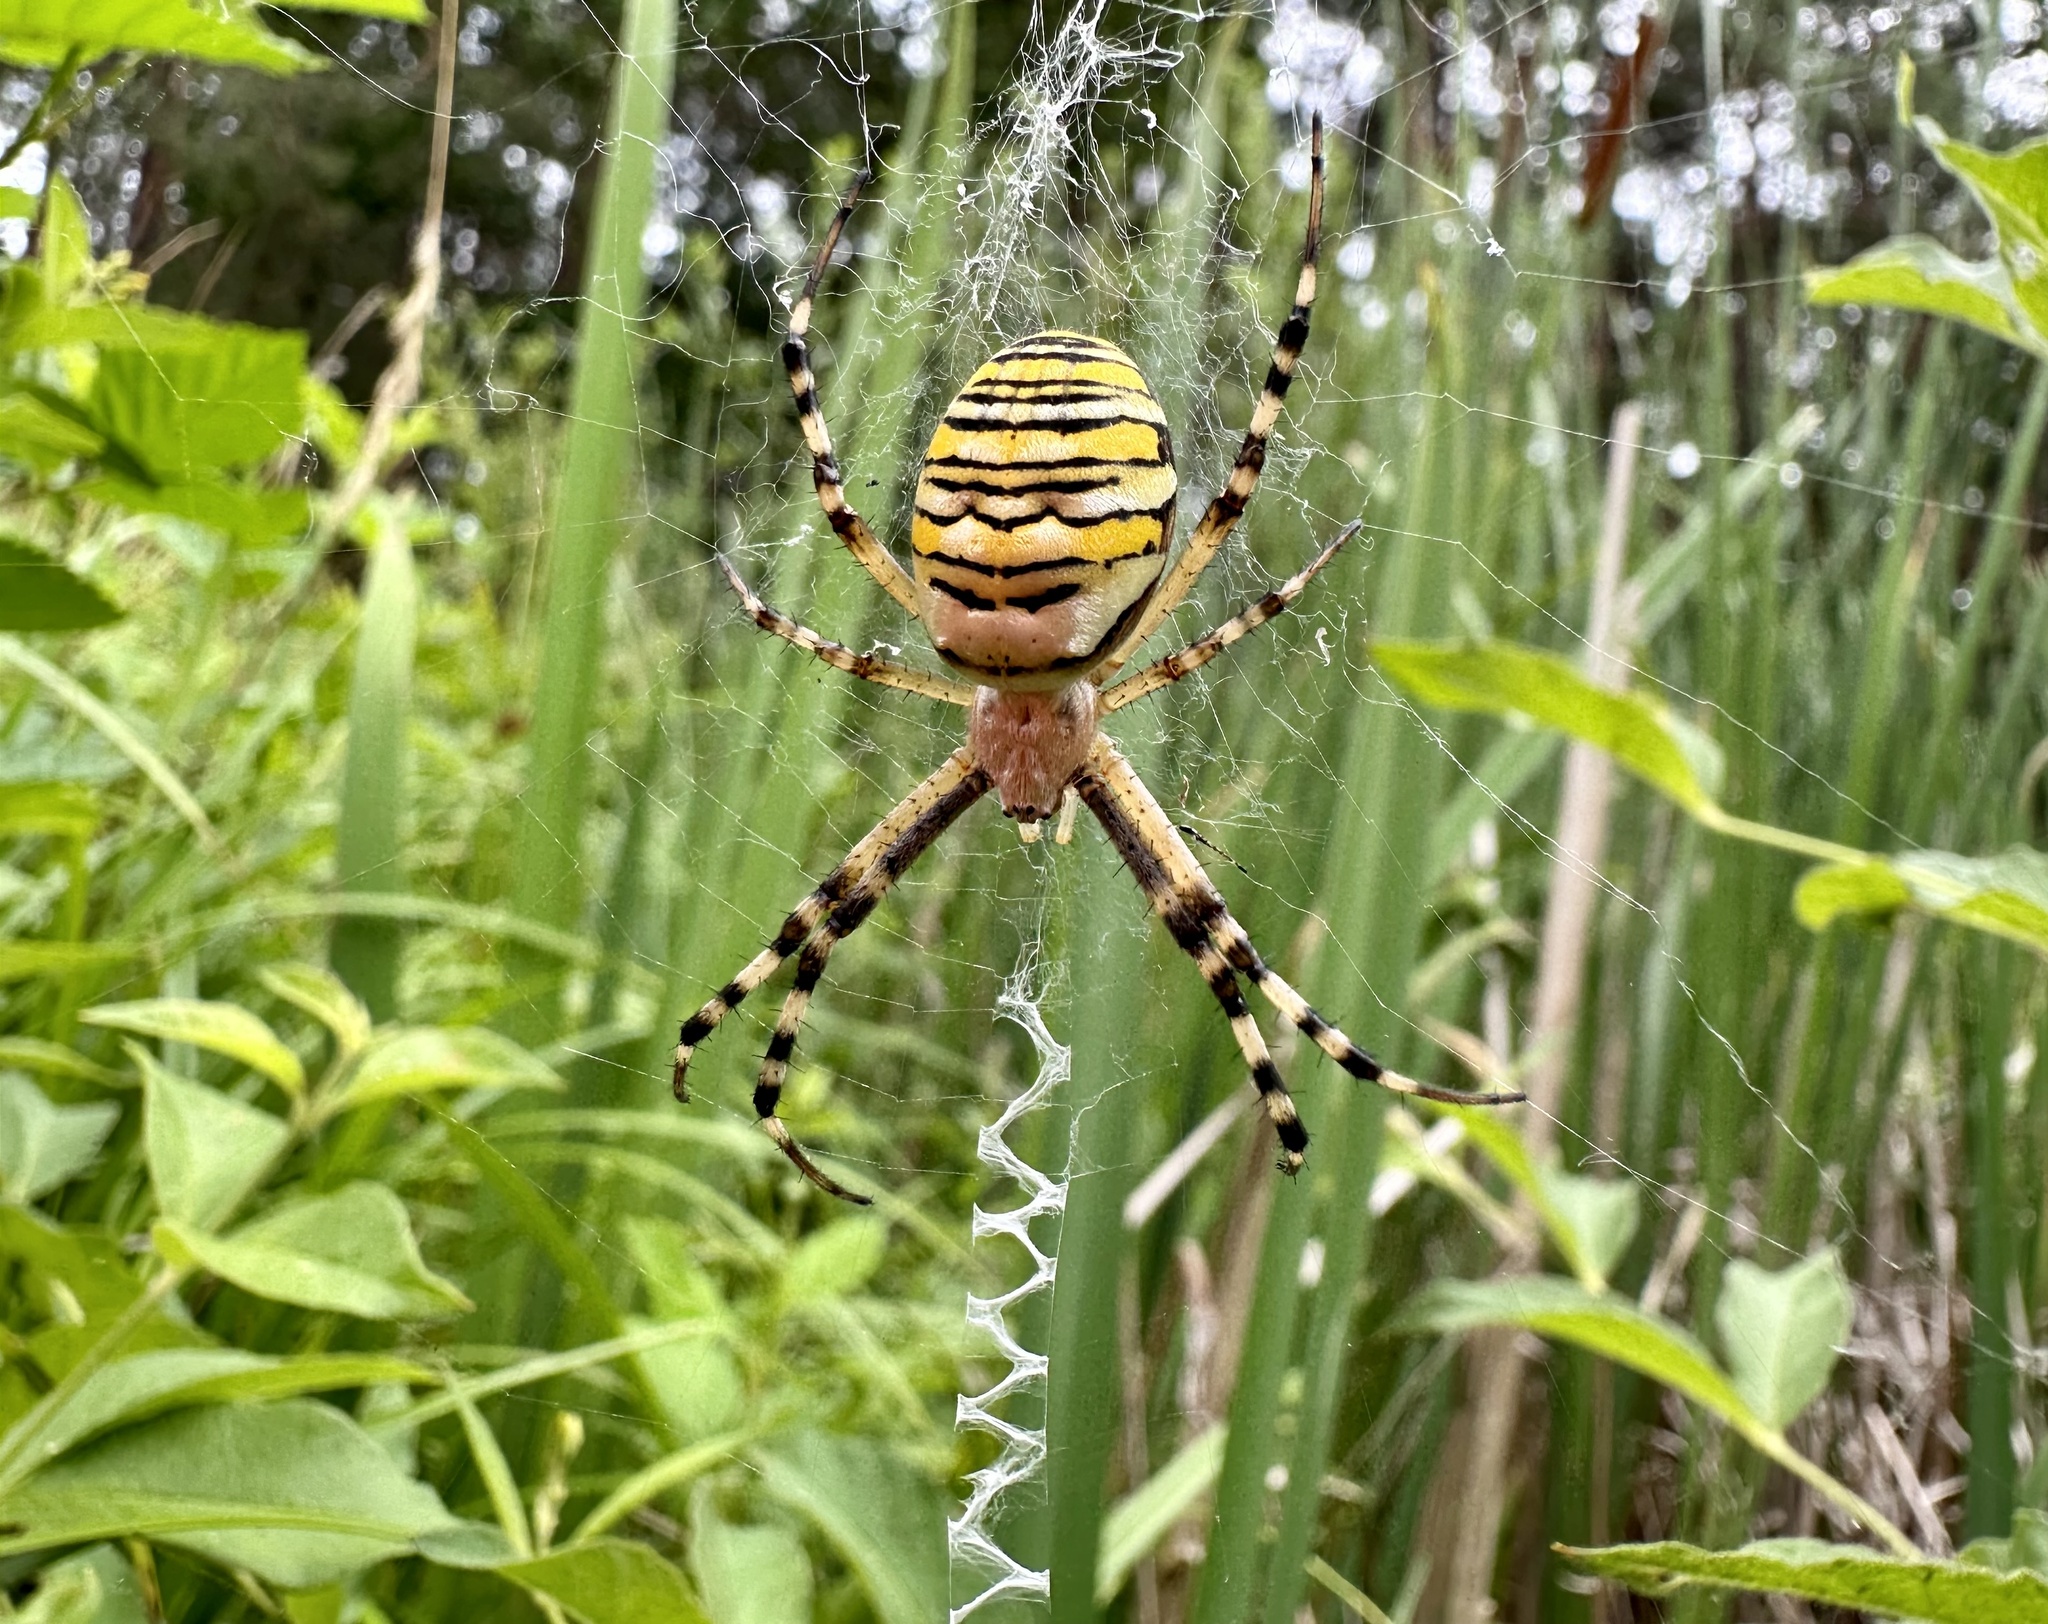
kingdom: Animalia
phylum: Arthropoda
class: Arachnida
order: Araneae
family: Araneidae
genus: Argiope
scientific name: Argiope bruennichi
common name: Wasp spider
